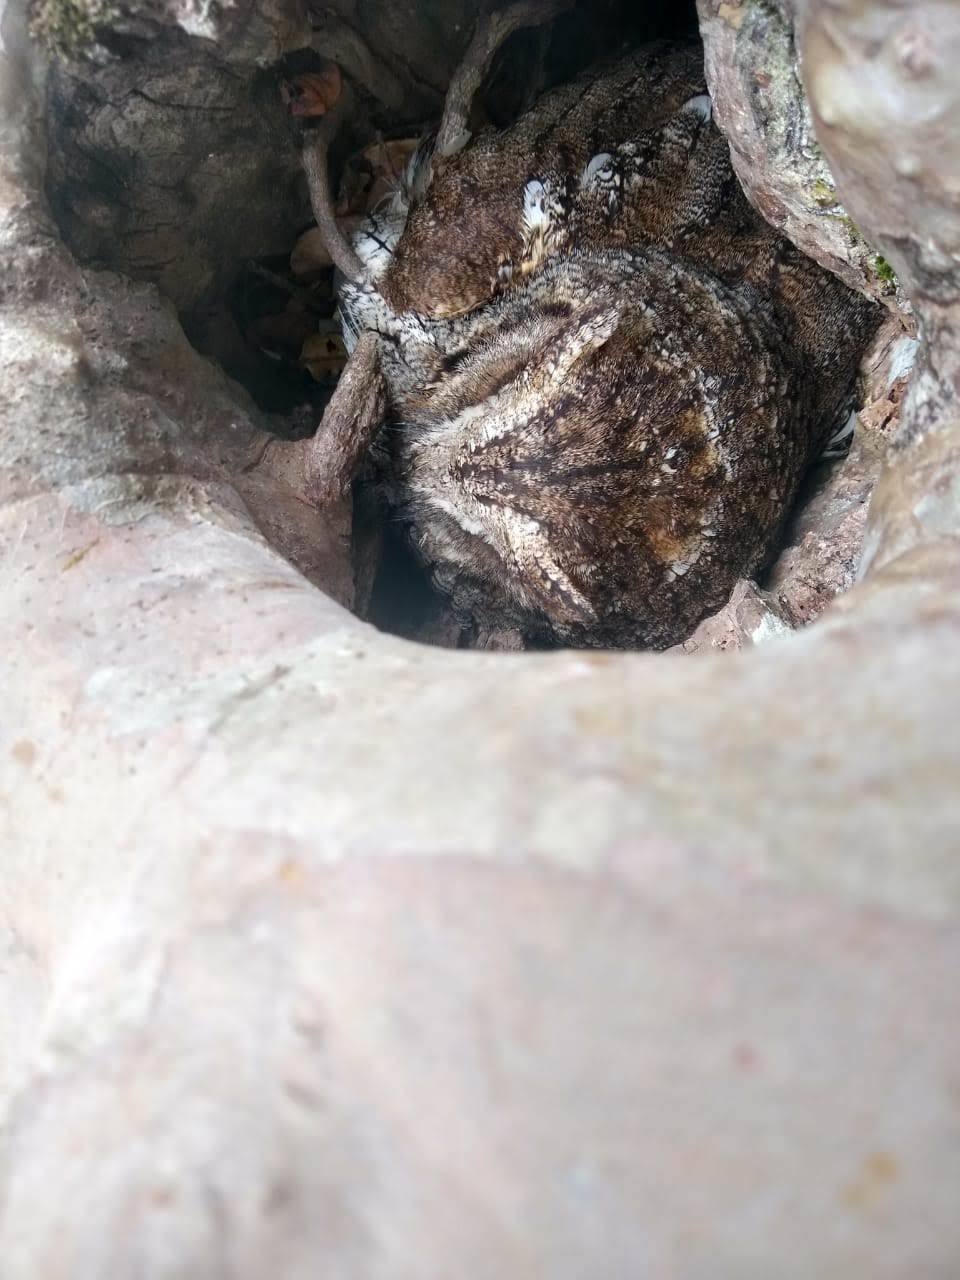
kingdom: Animalia
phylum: Chordata
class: Aves
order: Strigiformes
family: Strigidae
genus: Megascops
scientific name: Megascops choliba
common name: Tropical screech-owl
